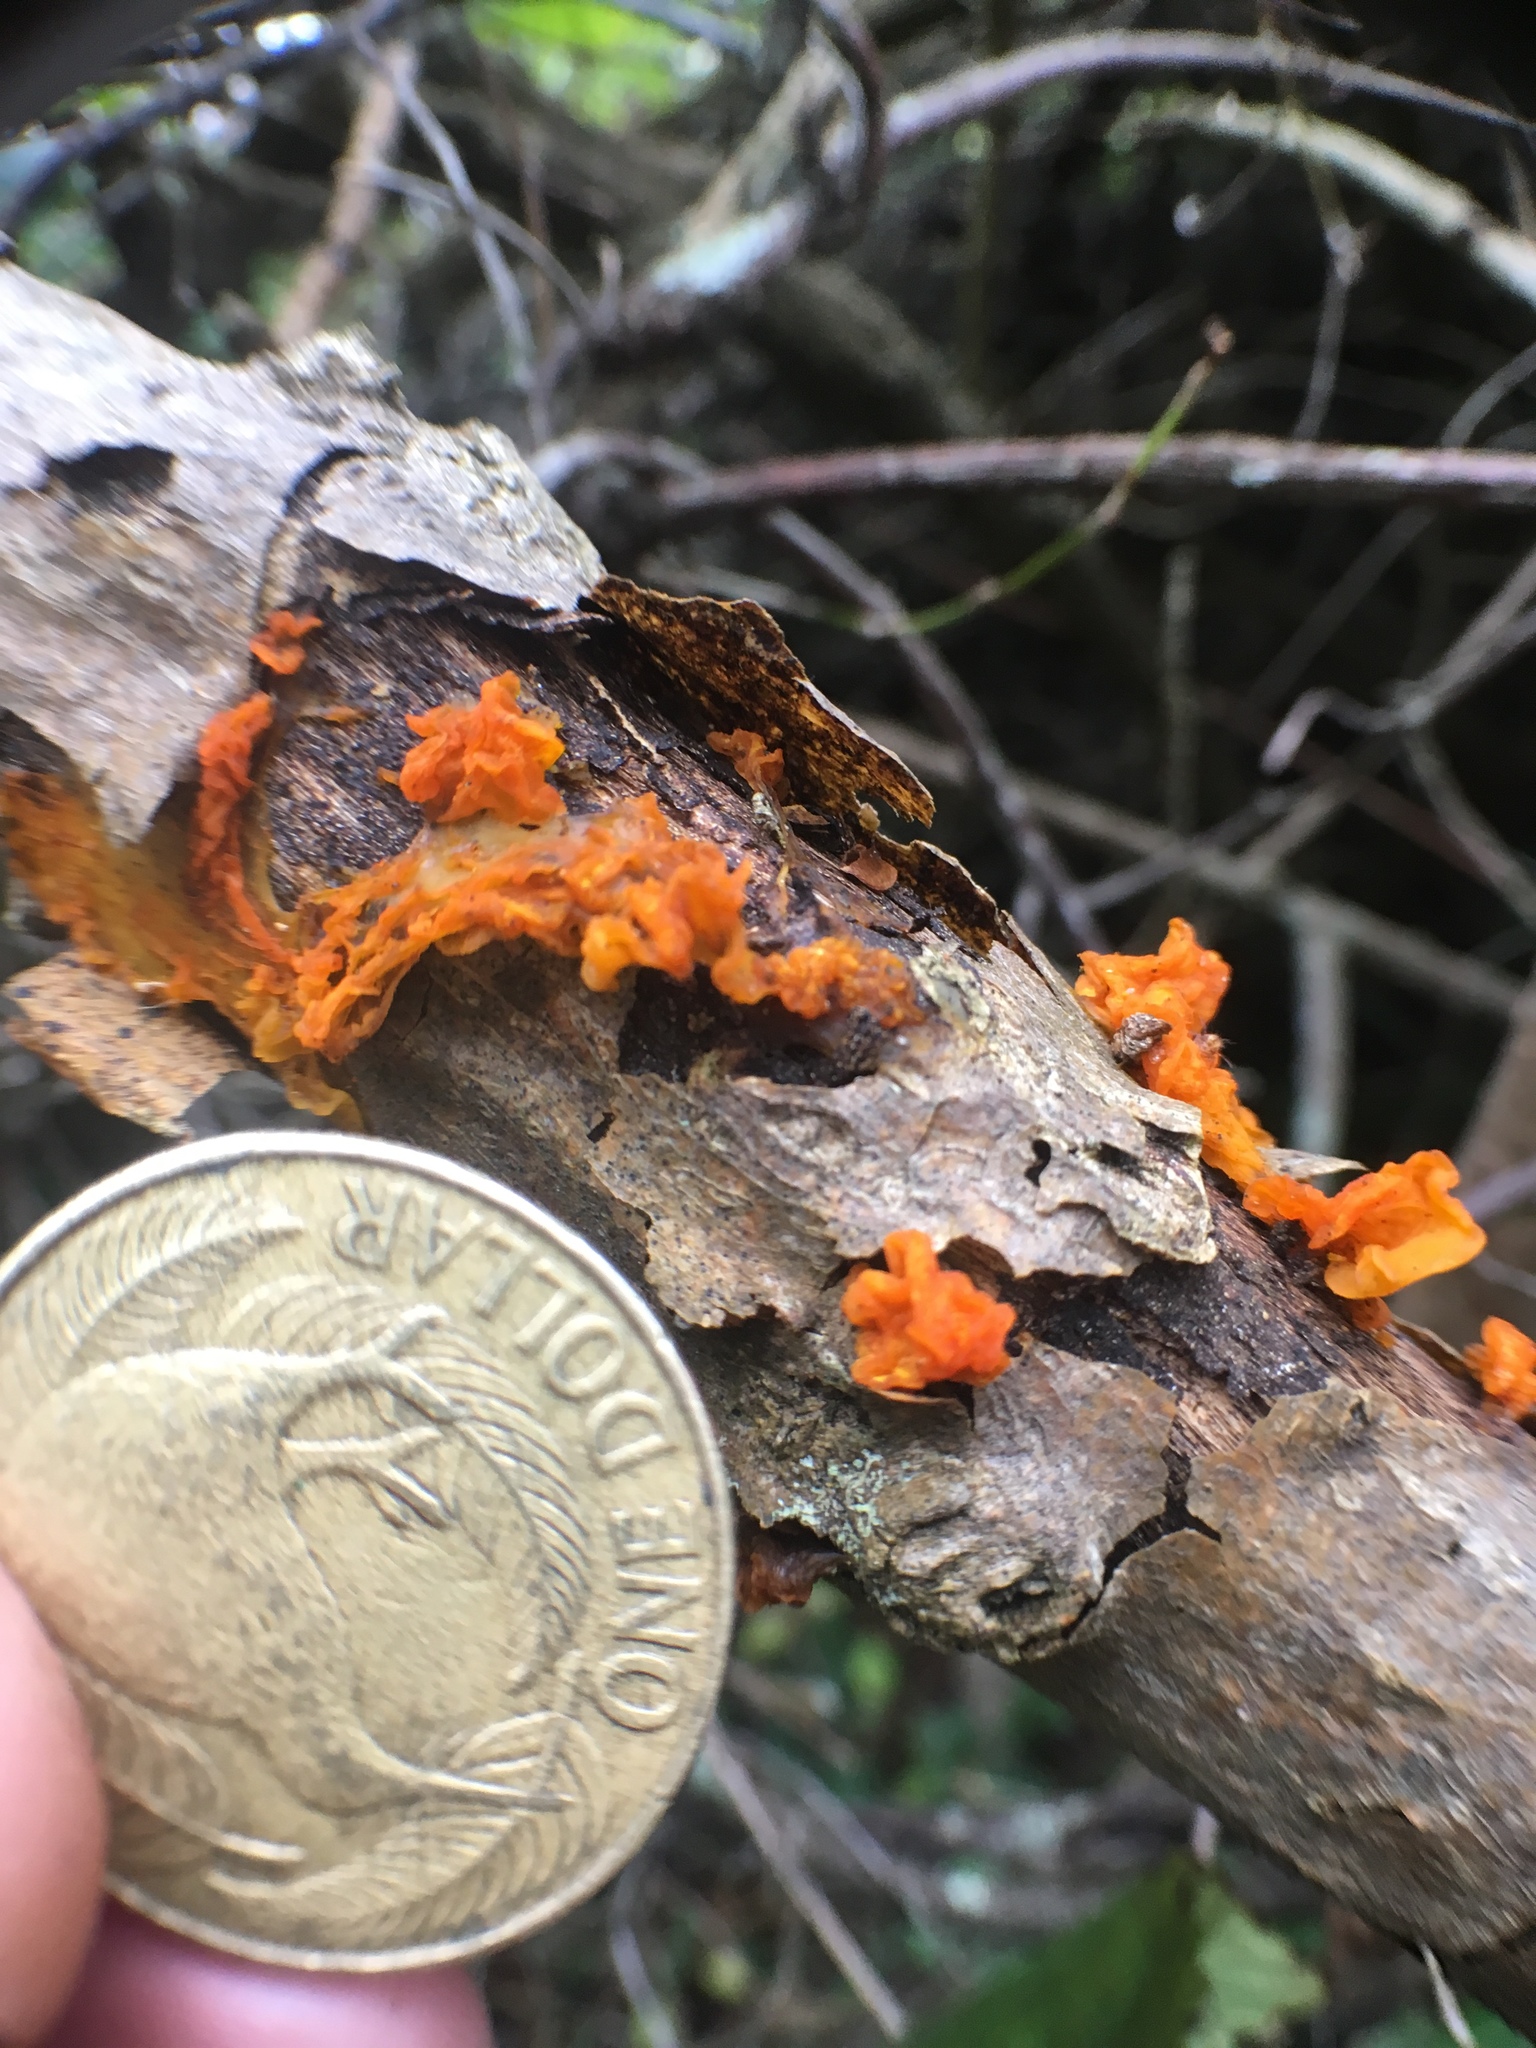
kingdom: Fungi
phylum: Basidiomycota
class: Tremellomycetes
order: Tremellales
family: Tremellaceae
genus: Tremella
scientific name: Tremella mesenterica
